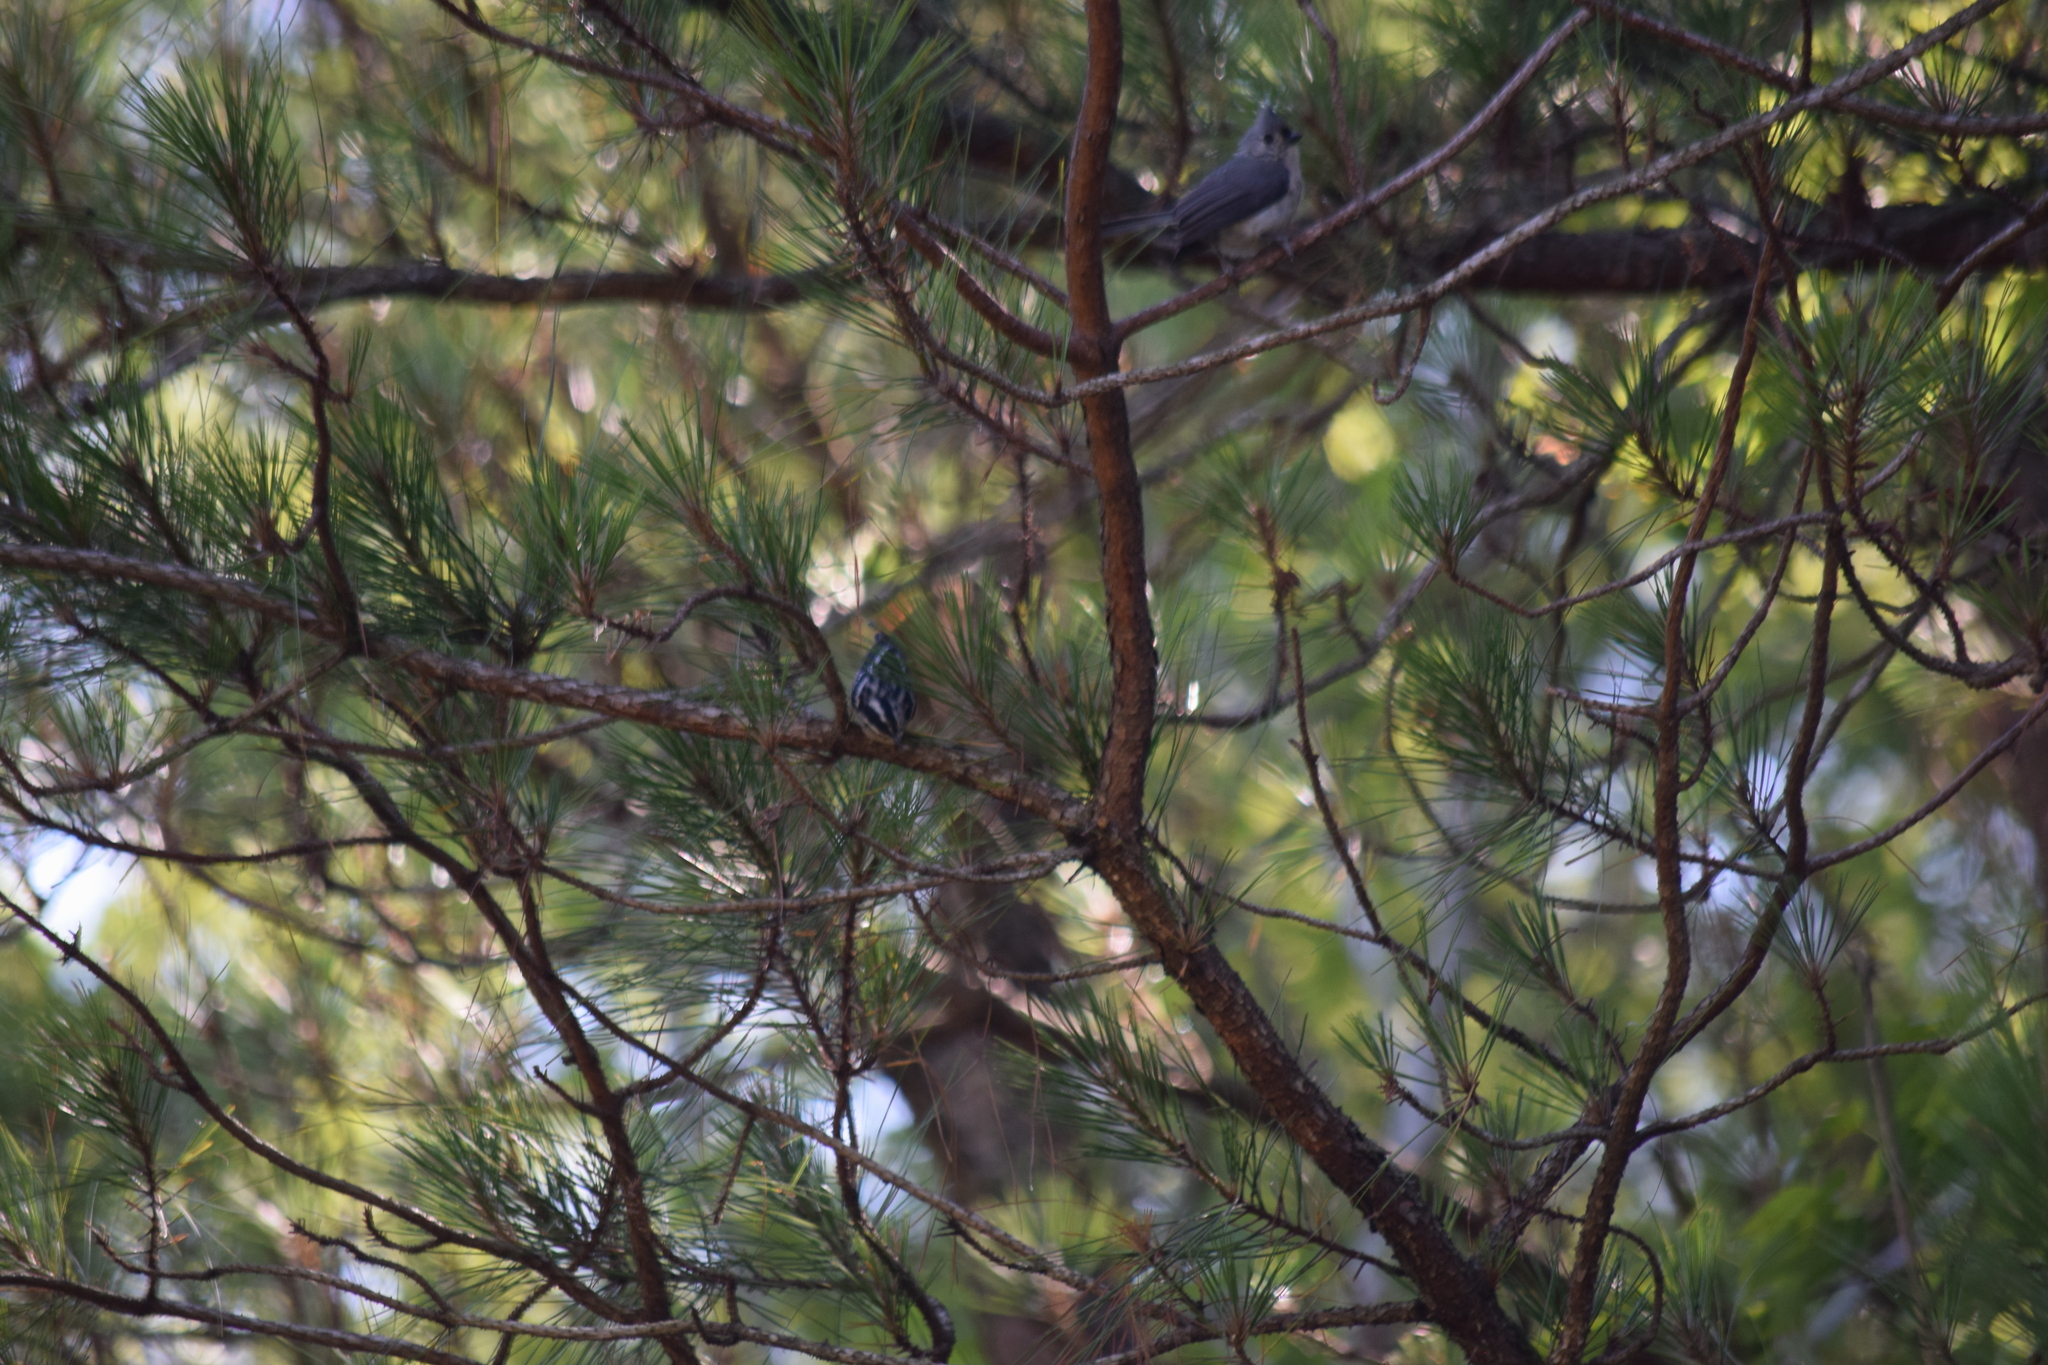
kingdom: Animalia
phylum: Chordata
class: Aves
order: Passeriformes
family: Parulidae
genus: Mniotilta
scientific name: Mniotilta varia
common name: Black-and-white warbler
